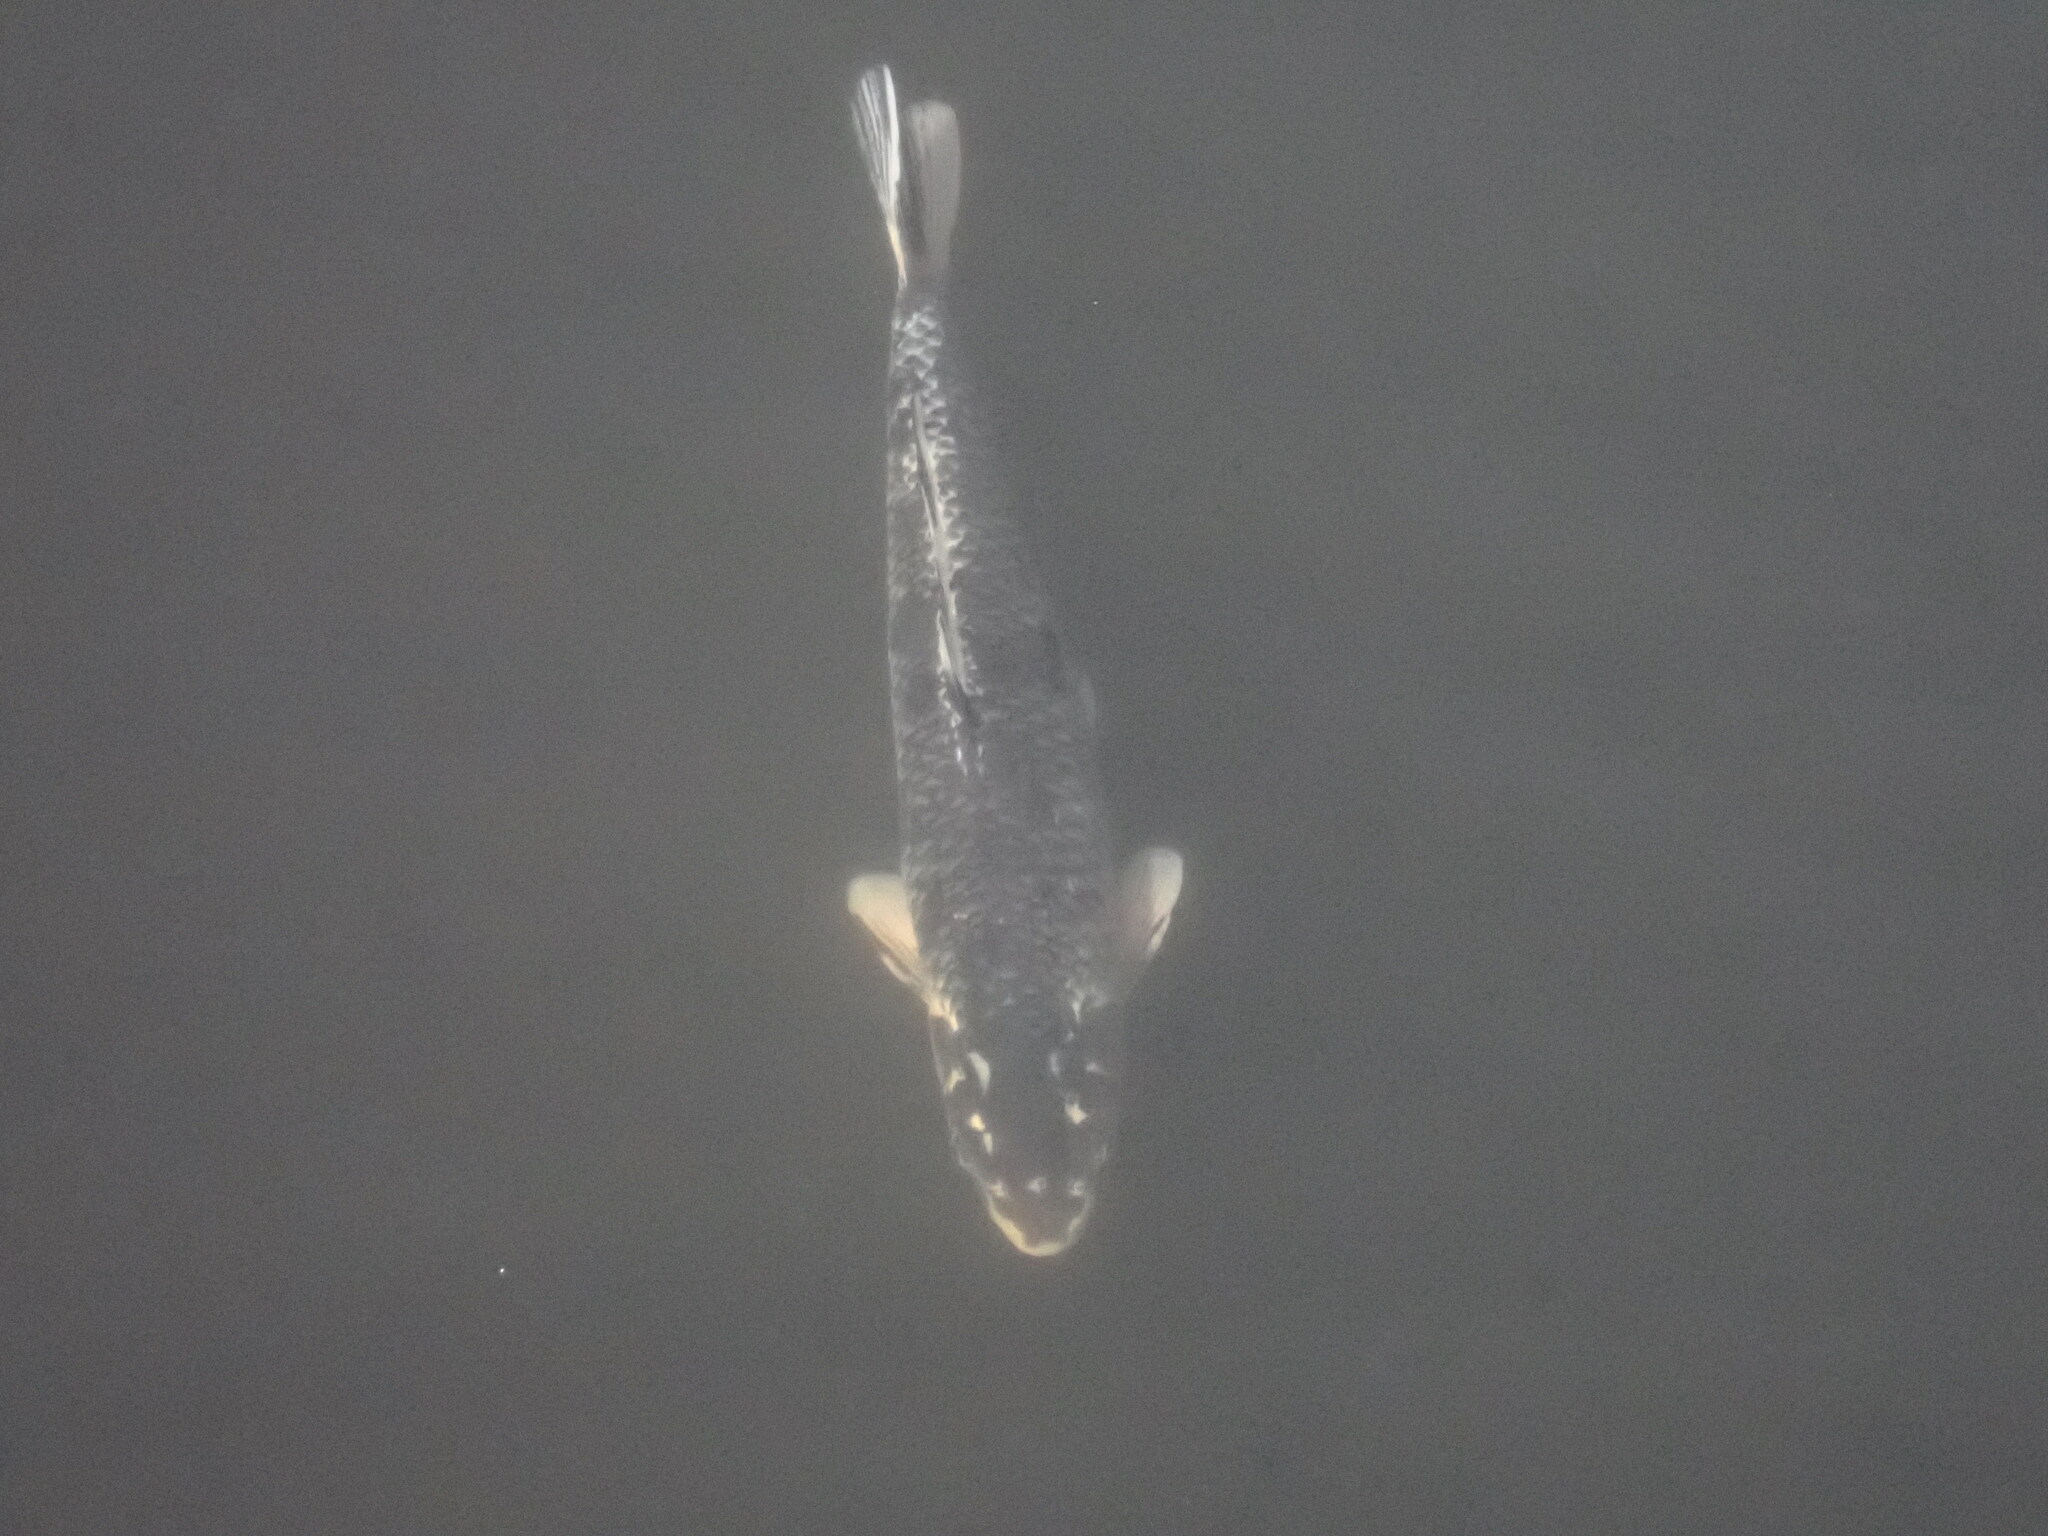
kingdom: Animalia
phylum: Chordata
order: Cypriniformes
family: Cyprinidae
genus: Cyprinus
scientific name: Cyprinus rubrofuscus
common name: Koi
